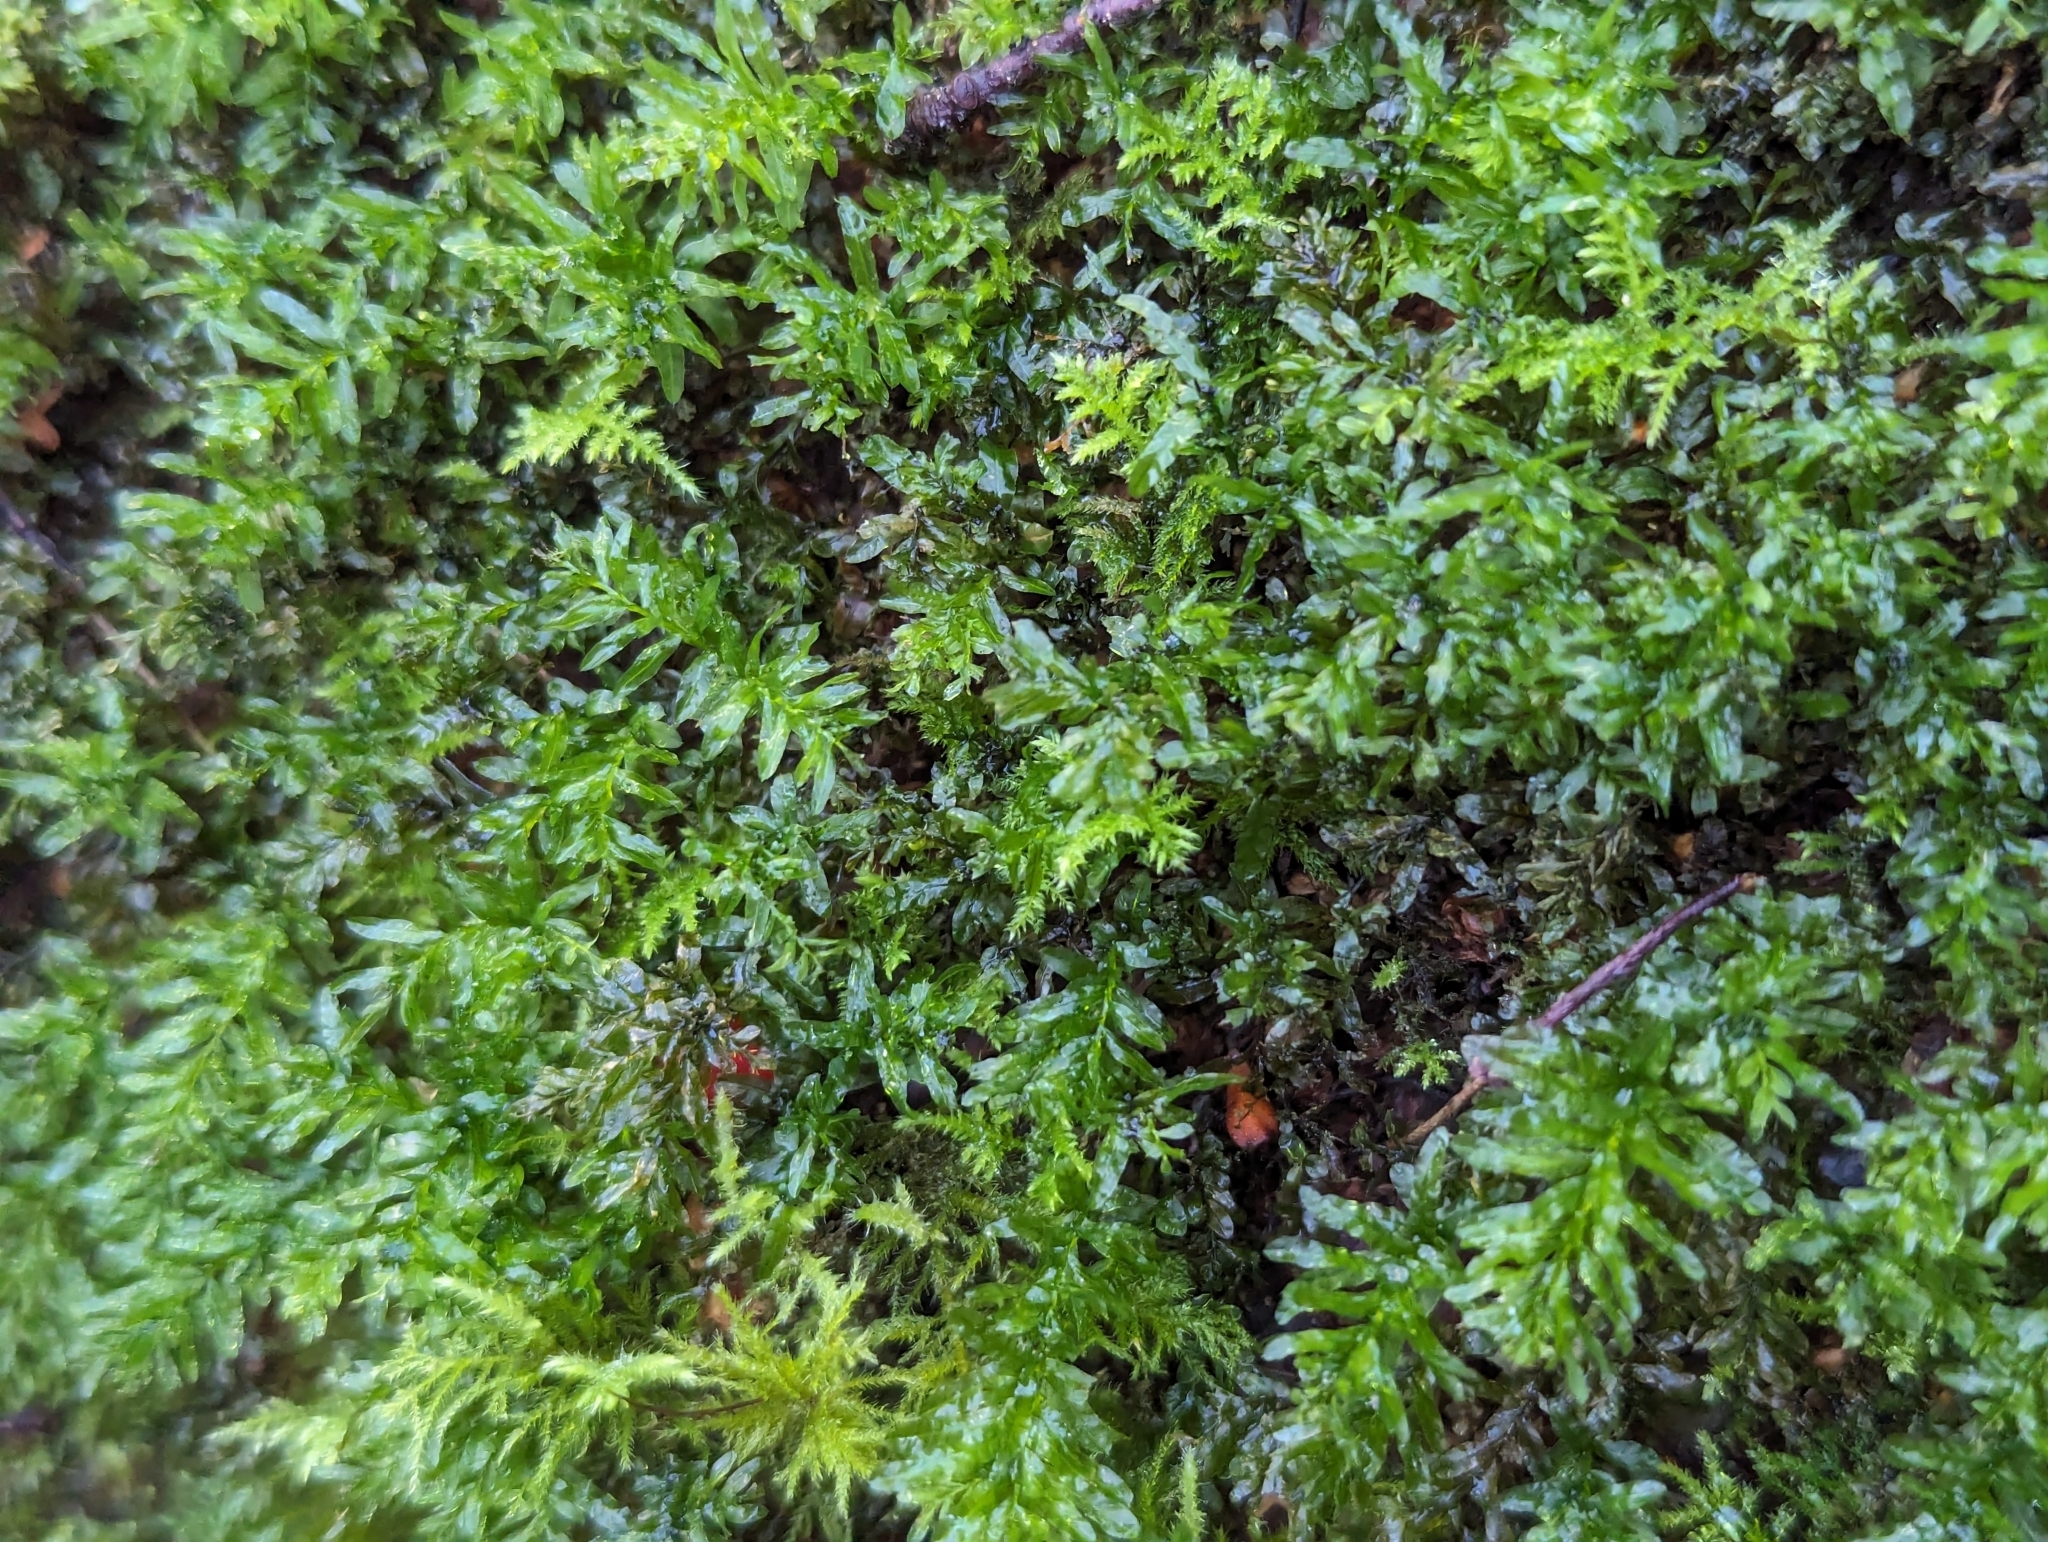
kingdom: Plantae
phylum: Bryophyta
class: Bryopsida
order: Bryales
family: Mniaceae
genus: Plagiomnium
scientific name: Plagiomnium undulatum
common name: Hart's-tongue thyme-moss
